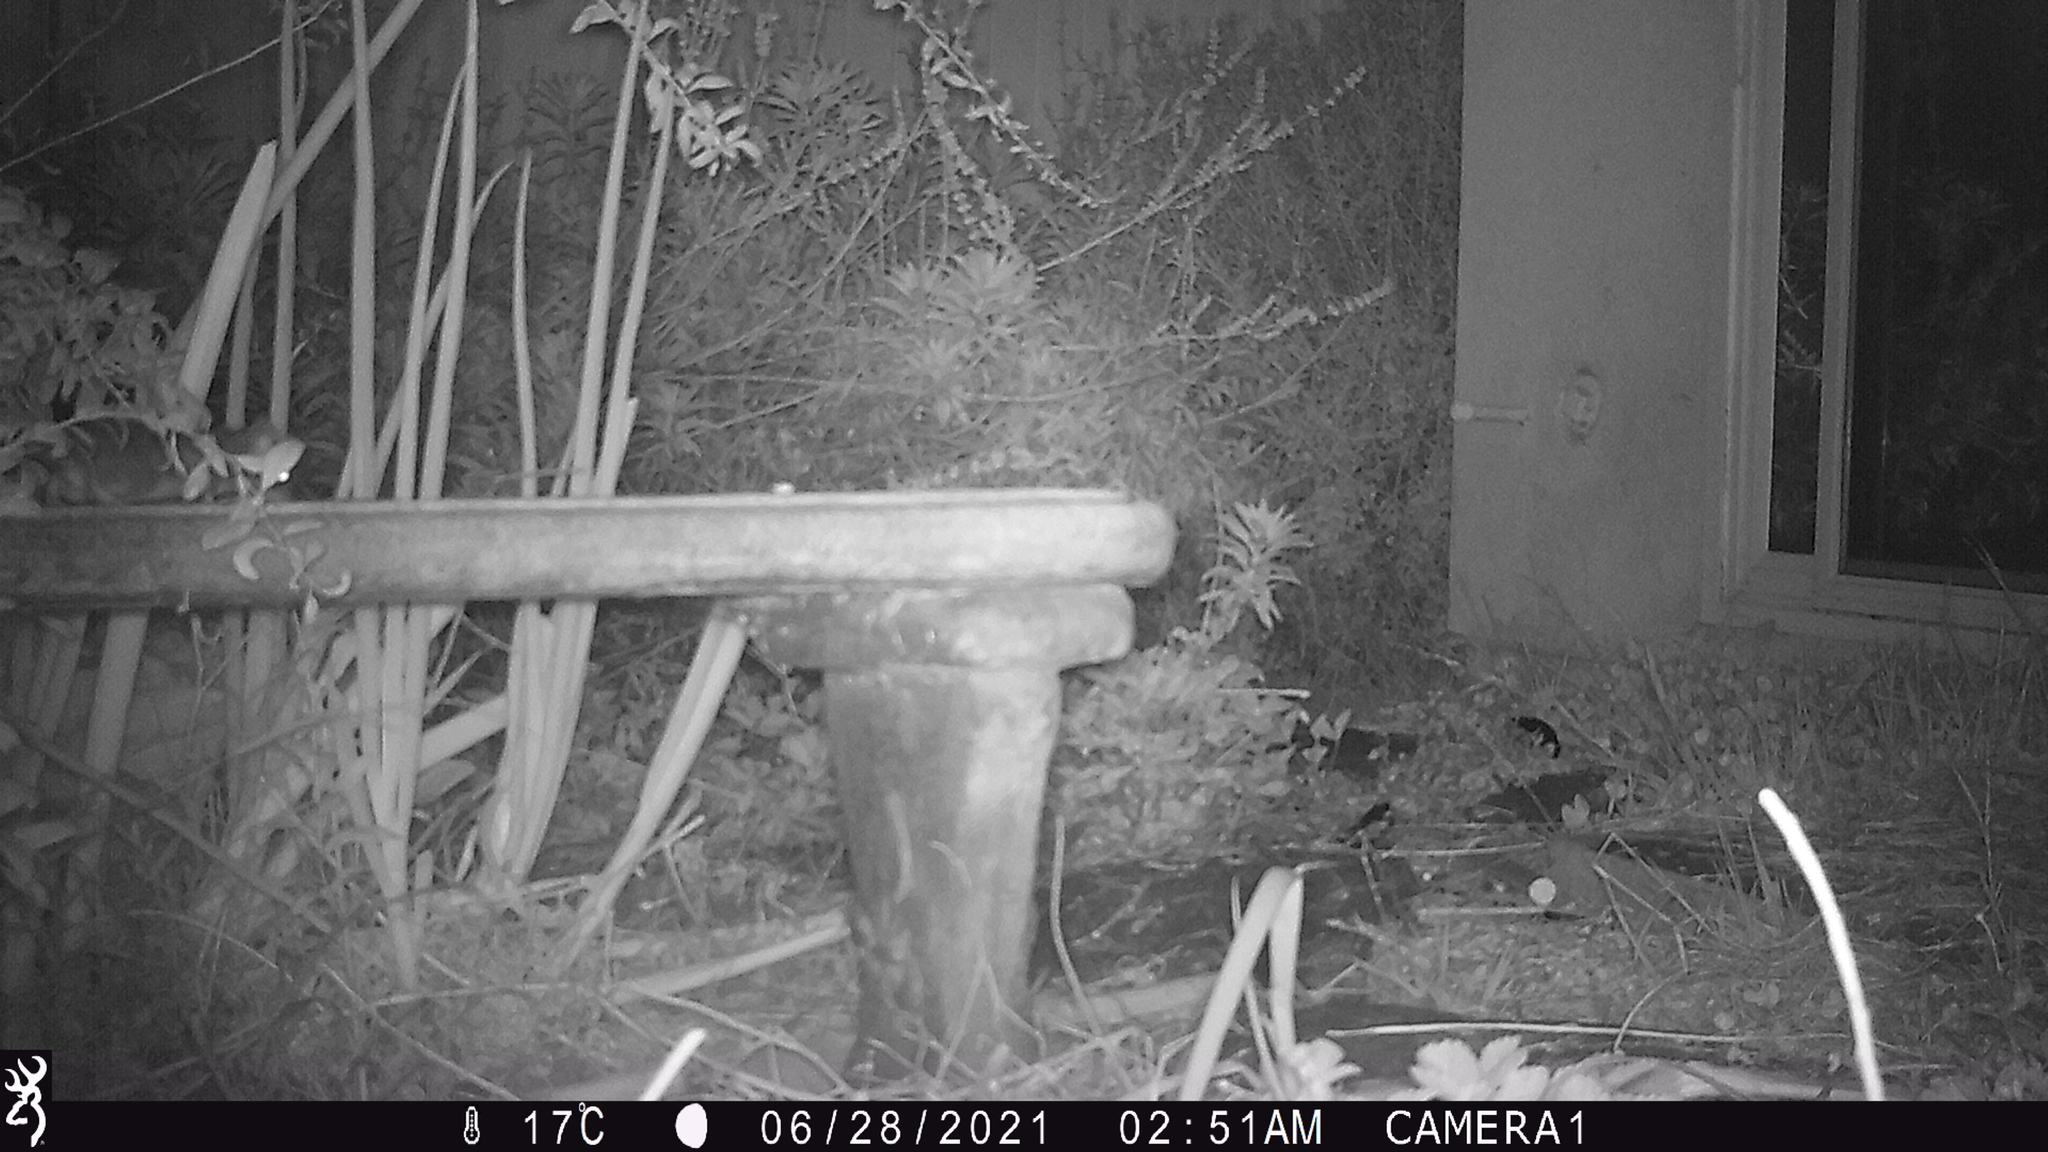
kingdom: Animalia
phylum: Chordata
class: Mammalia
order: Rodentia
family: Muridae
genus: Rattus
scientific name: Rattus rattus
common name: Black rat
